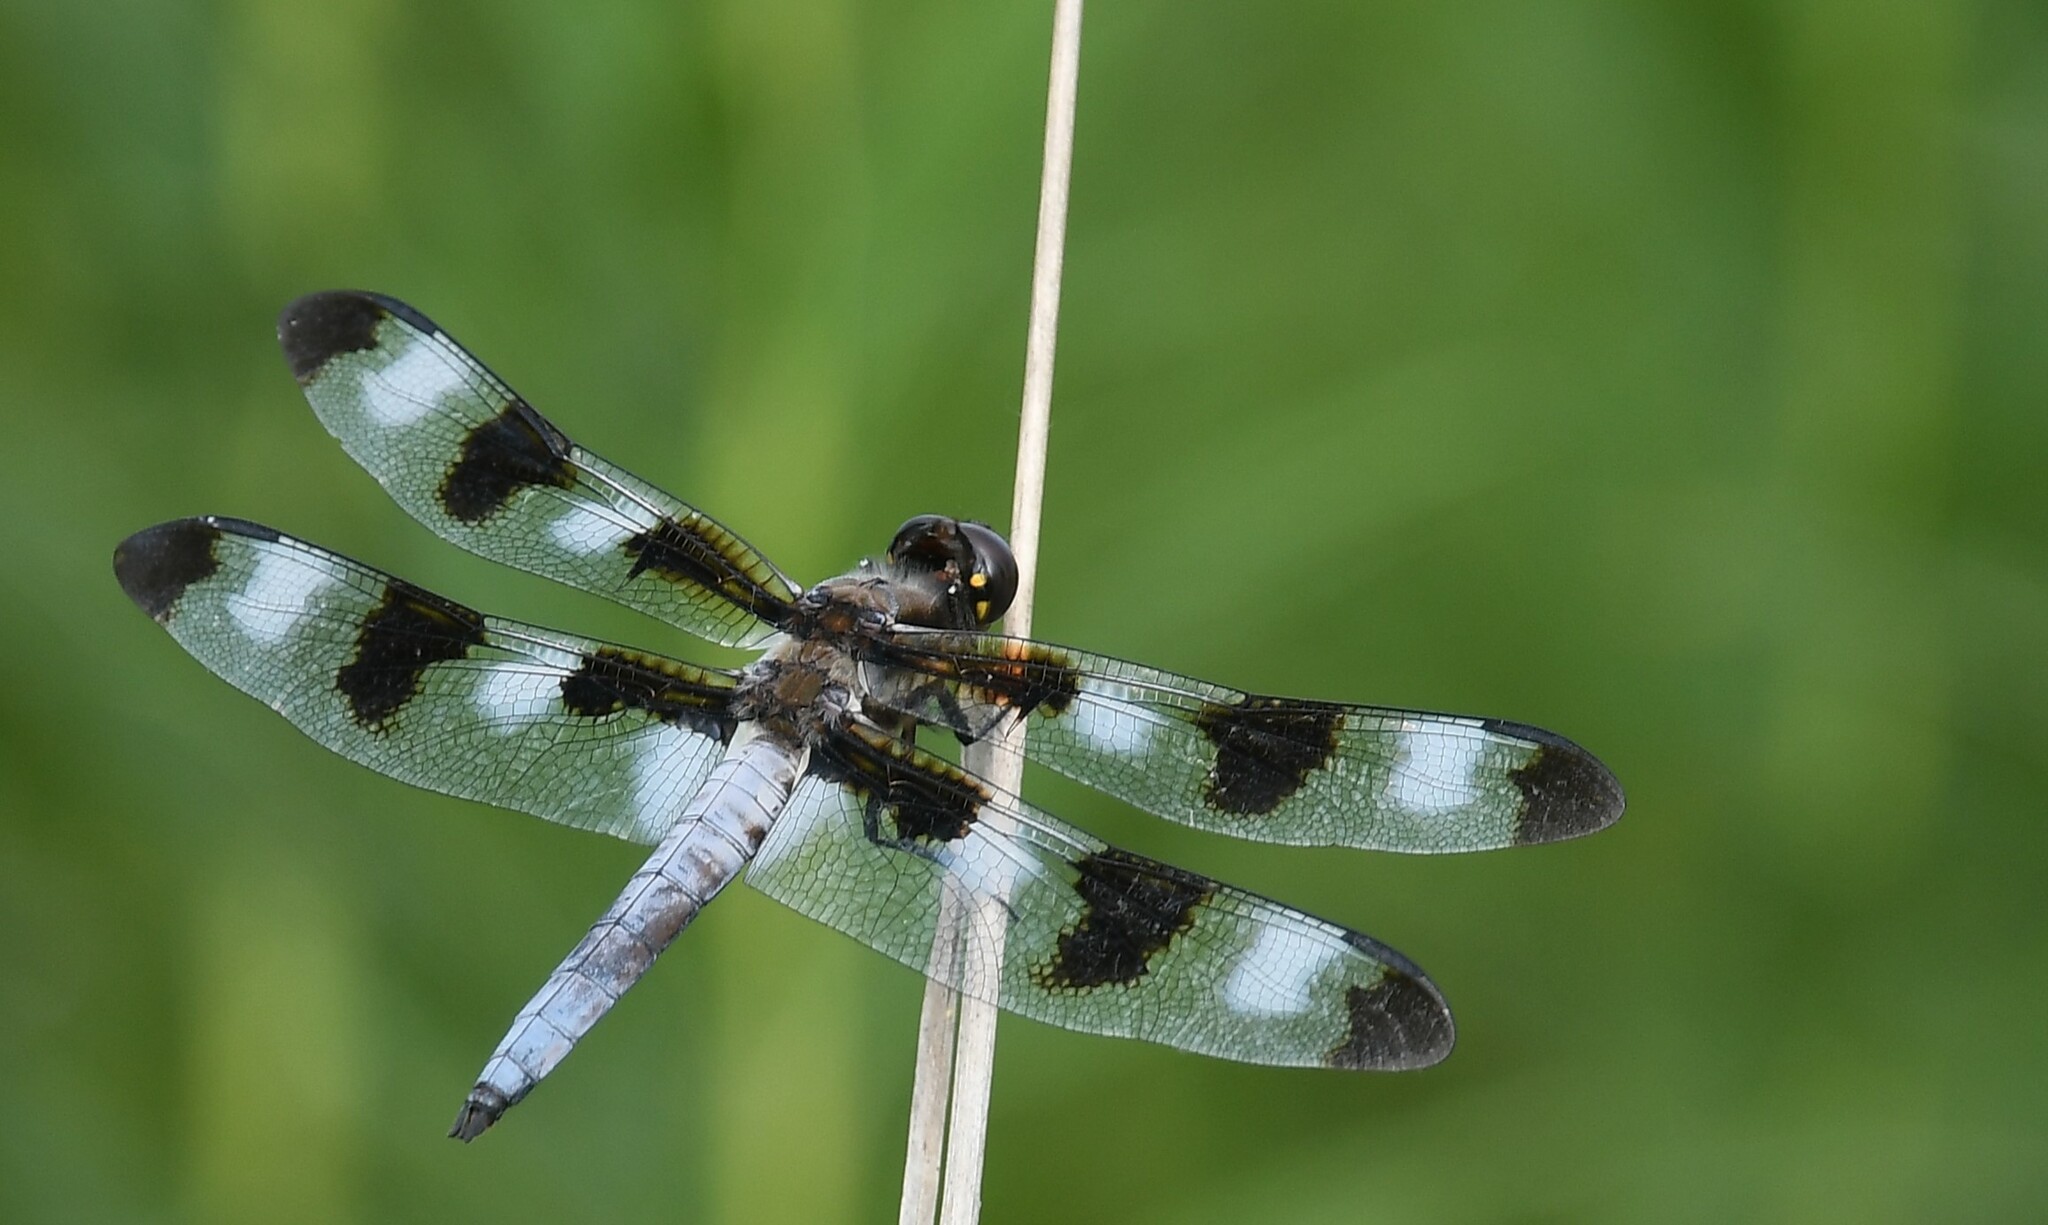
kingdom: Animalia
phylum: Arthropoda
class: Insecta
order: Odonata
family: Libellulidae
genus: Libellula
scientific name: Libellula pulchella
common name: Twelve-spotted skimmer
